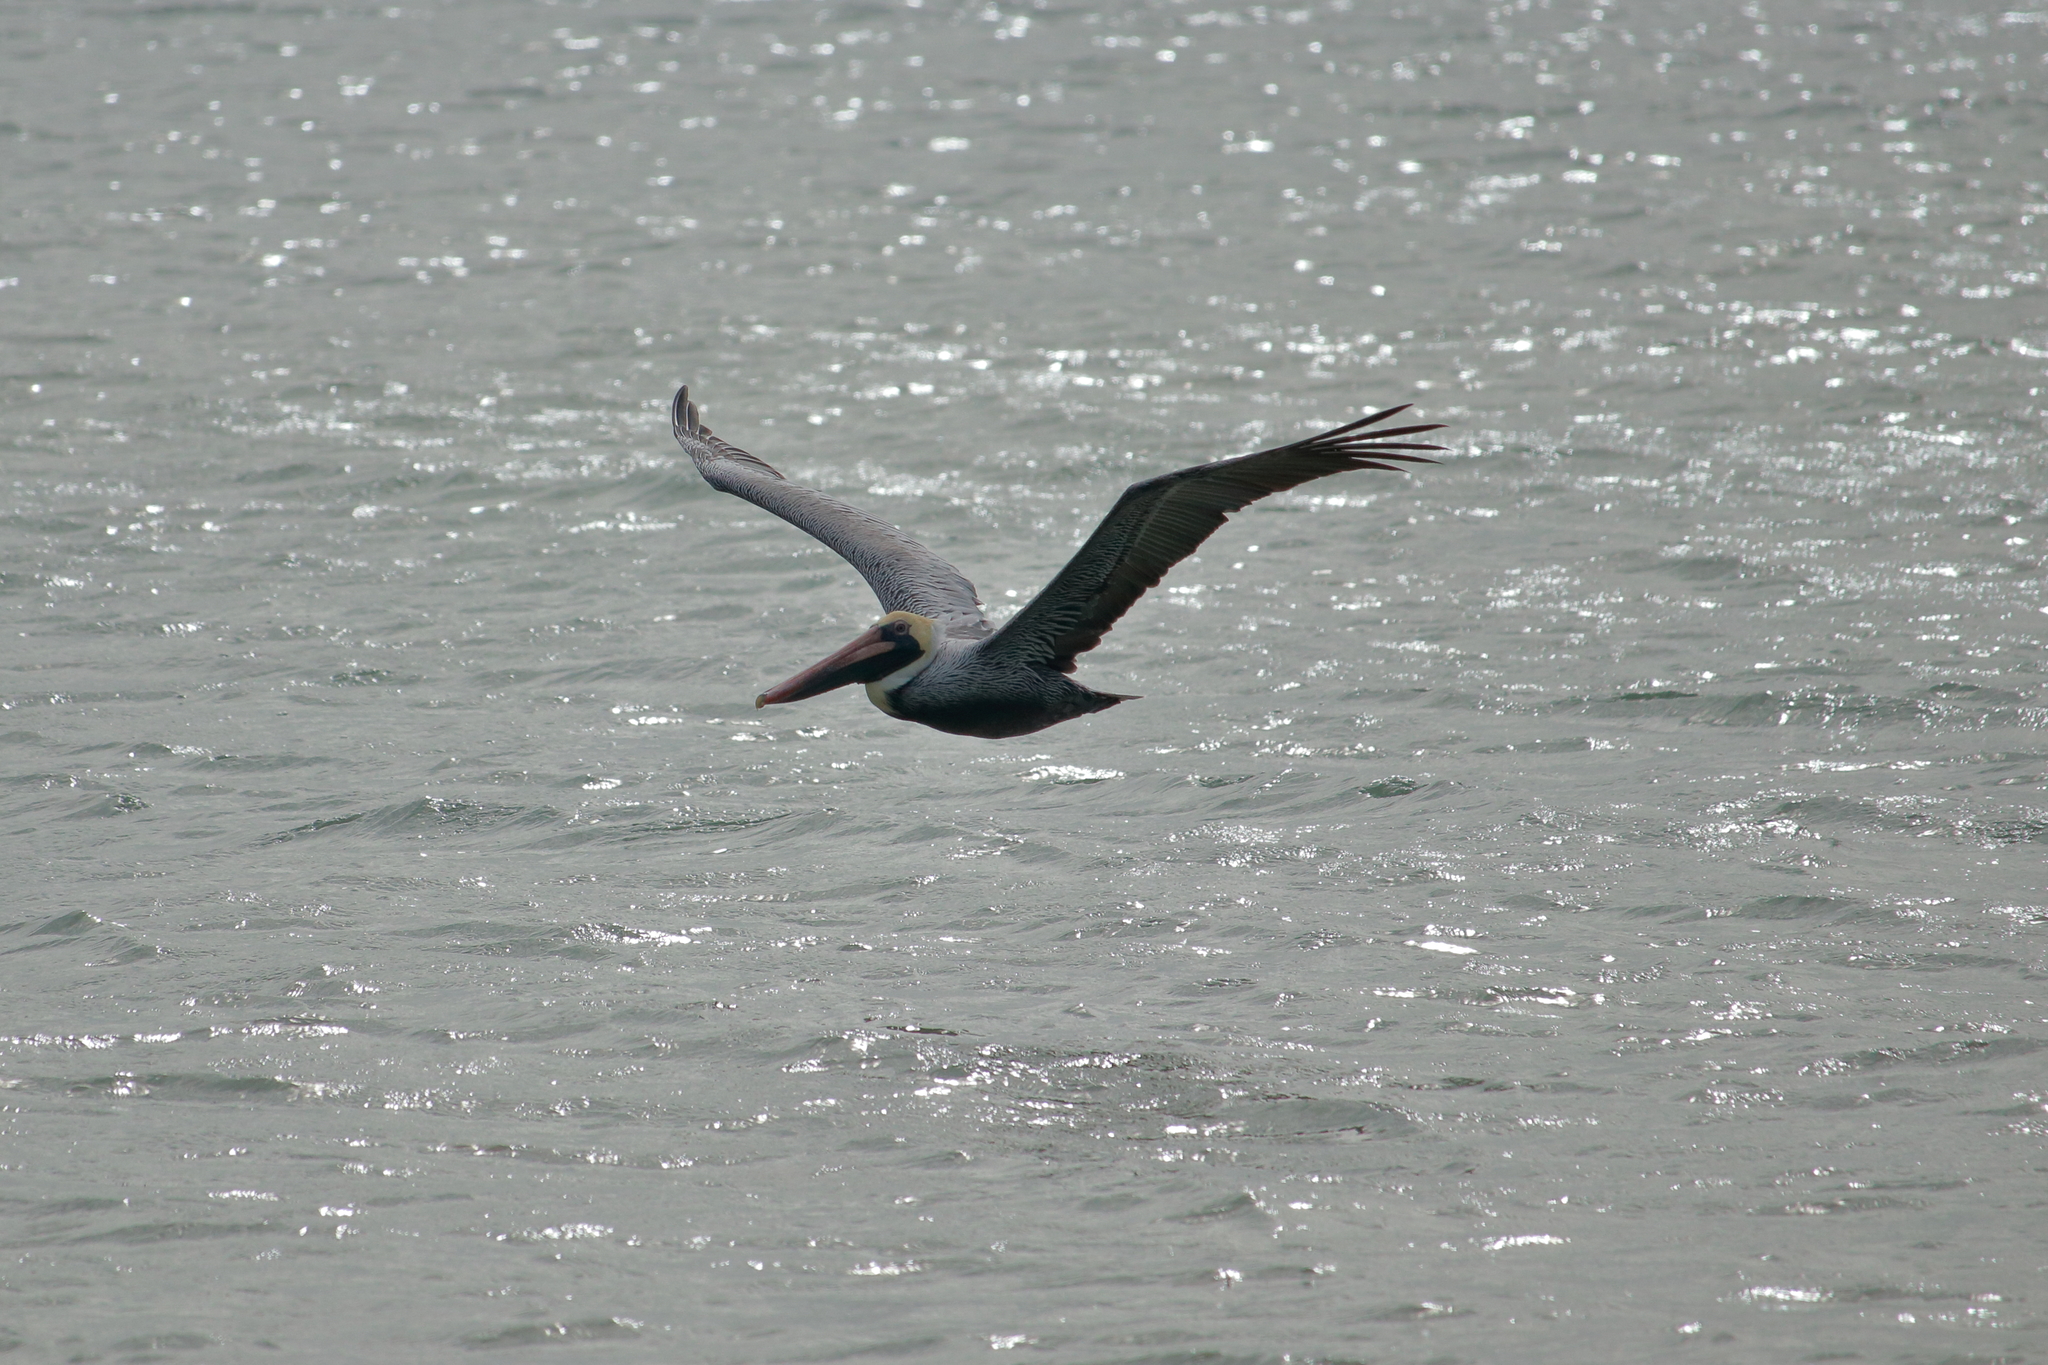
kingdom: Animalia
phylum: Chordata
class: Aves
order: Pelecaniformes
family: Pelecanidae
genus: Pelecanus
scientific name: Pelecanus occidentalis
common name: Brown pelican
